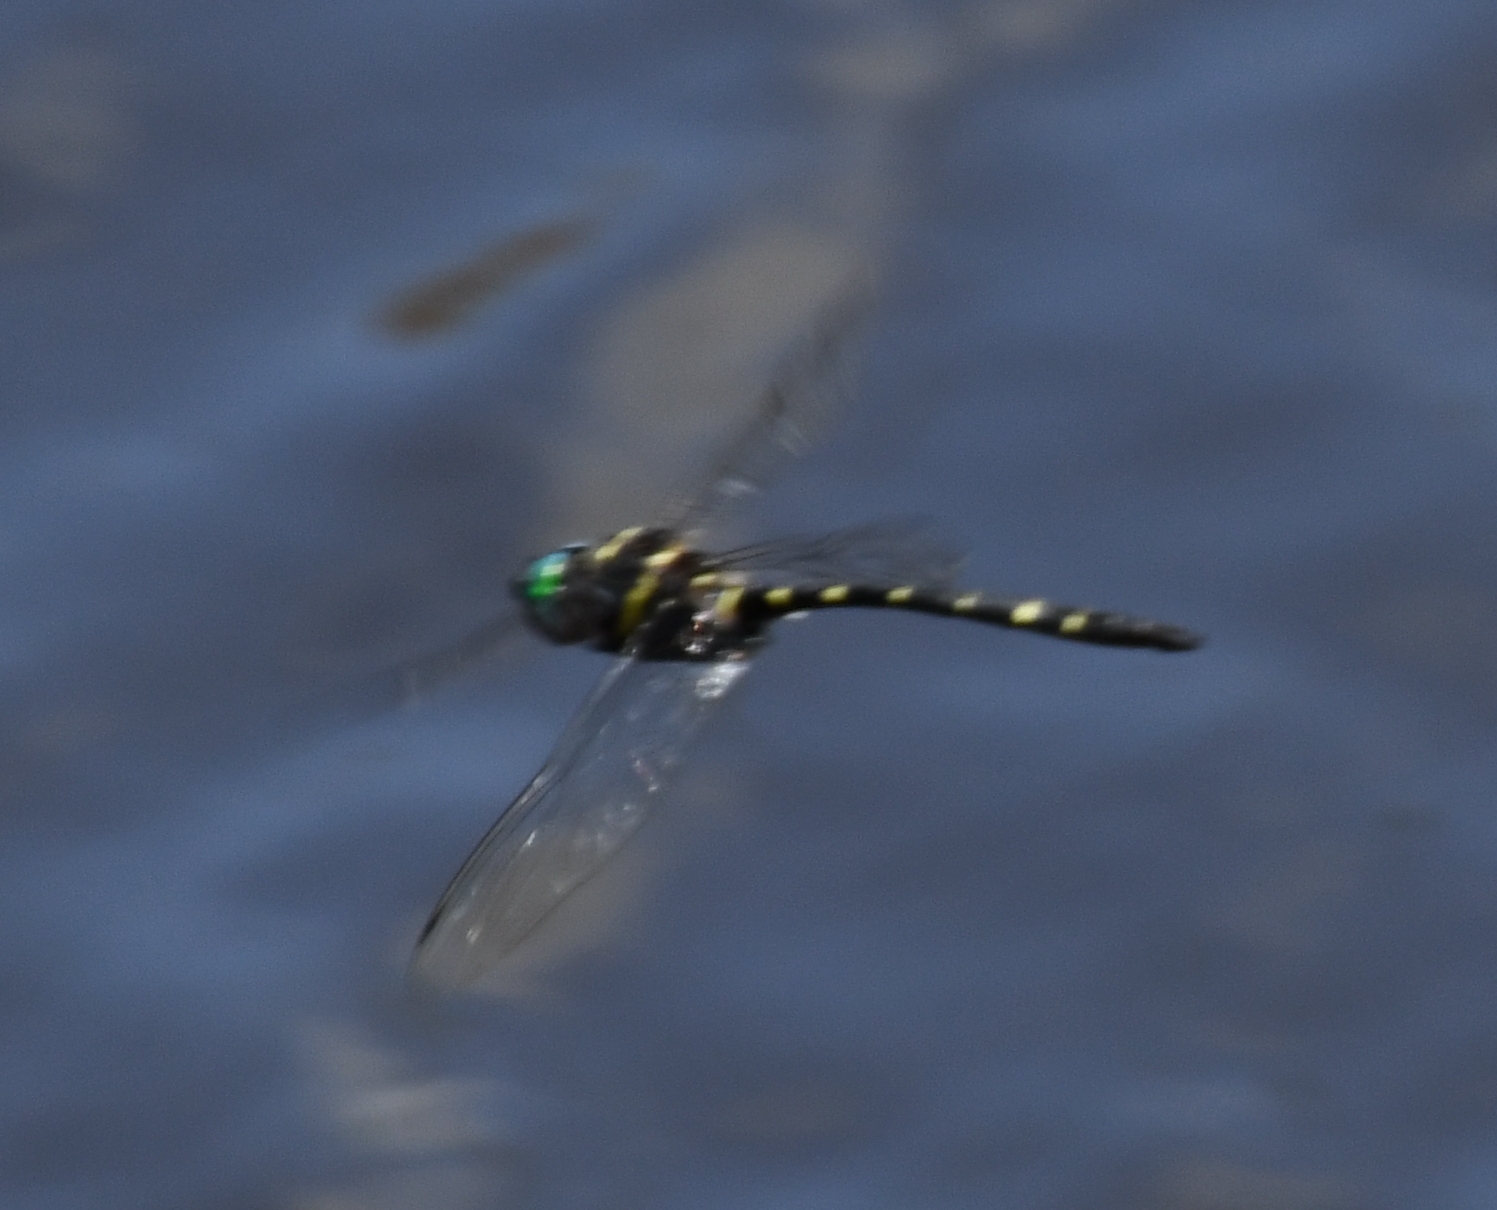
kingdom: Animalia
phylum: Arthropoda
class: Insecta
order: Odonata
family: Macromiidae
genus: Macromia
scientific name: Macromia taeniolata
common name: Royal river cruiser
